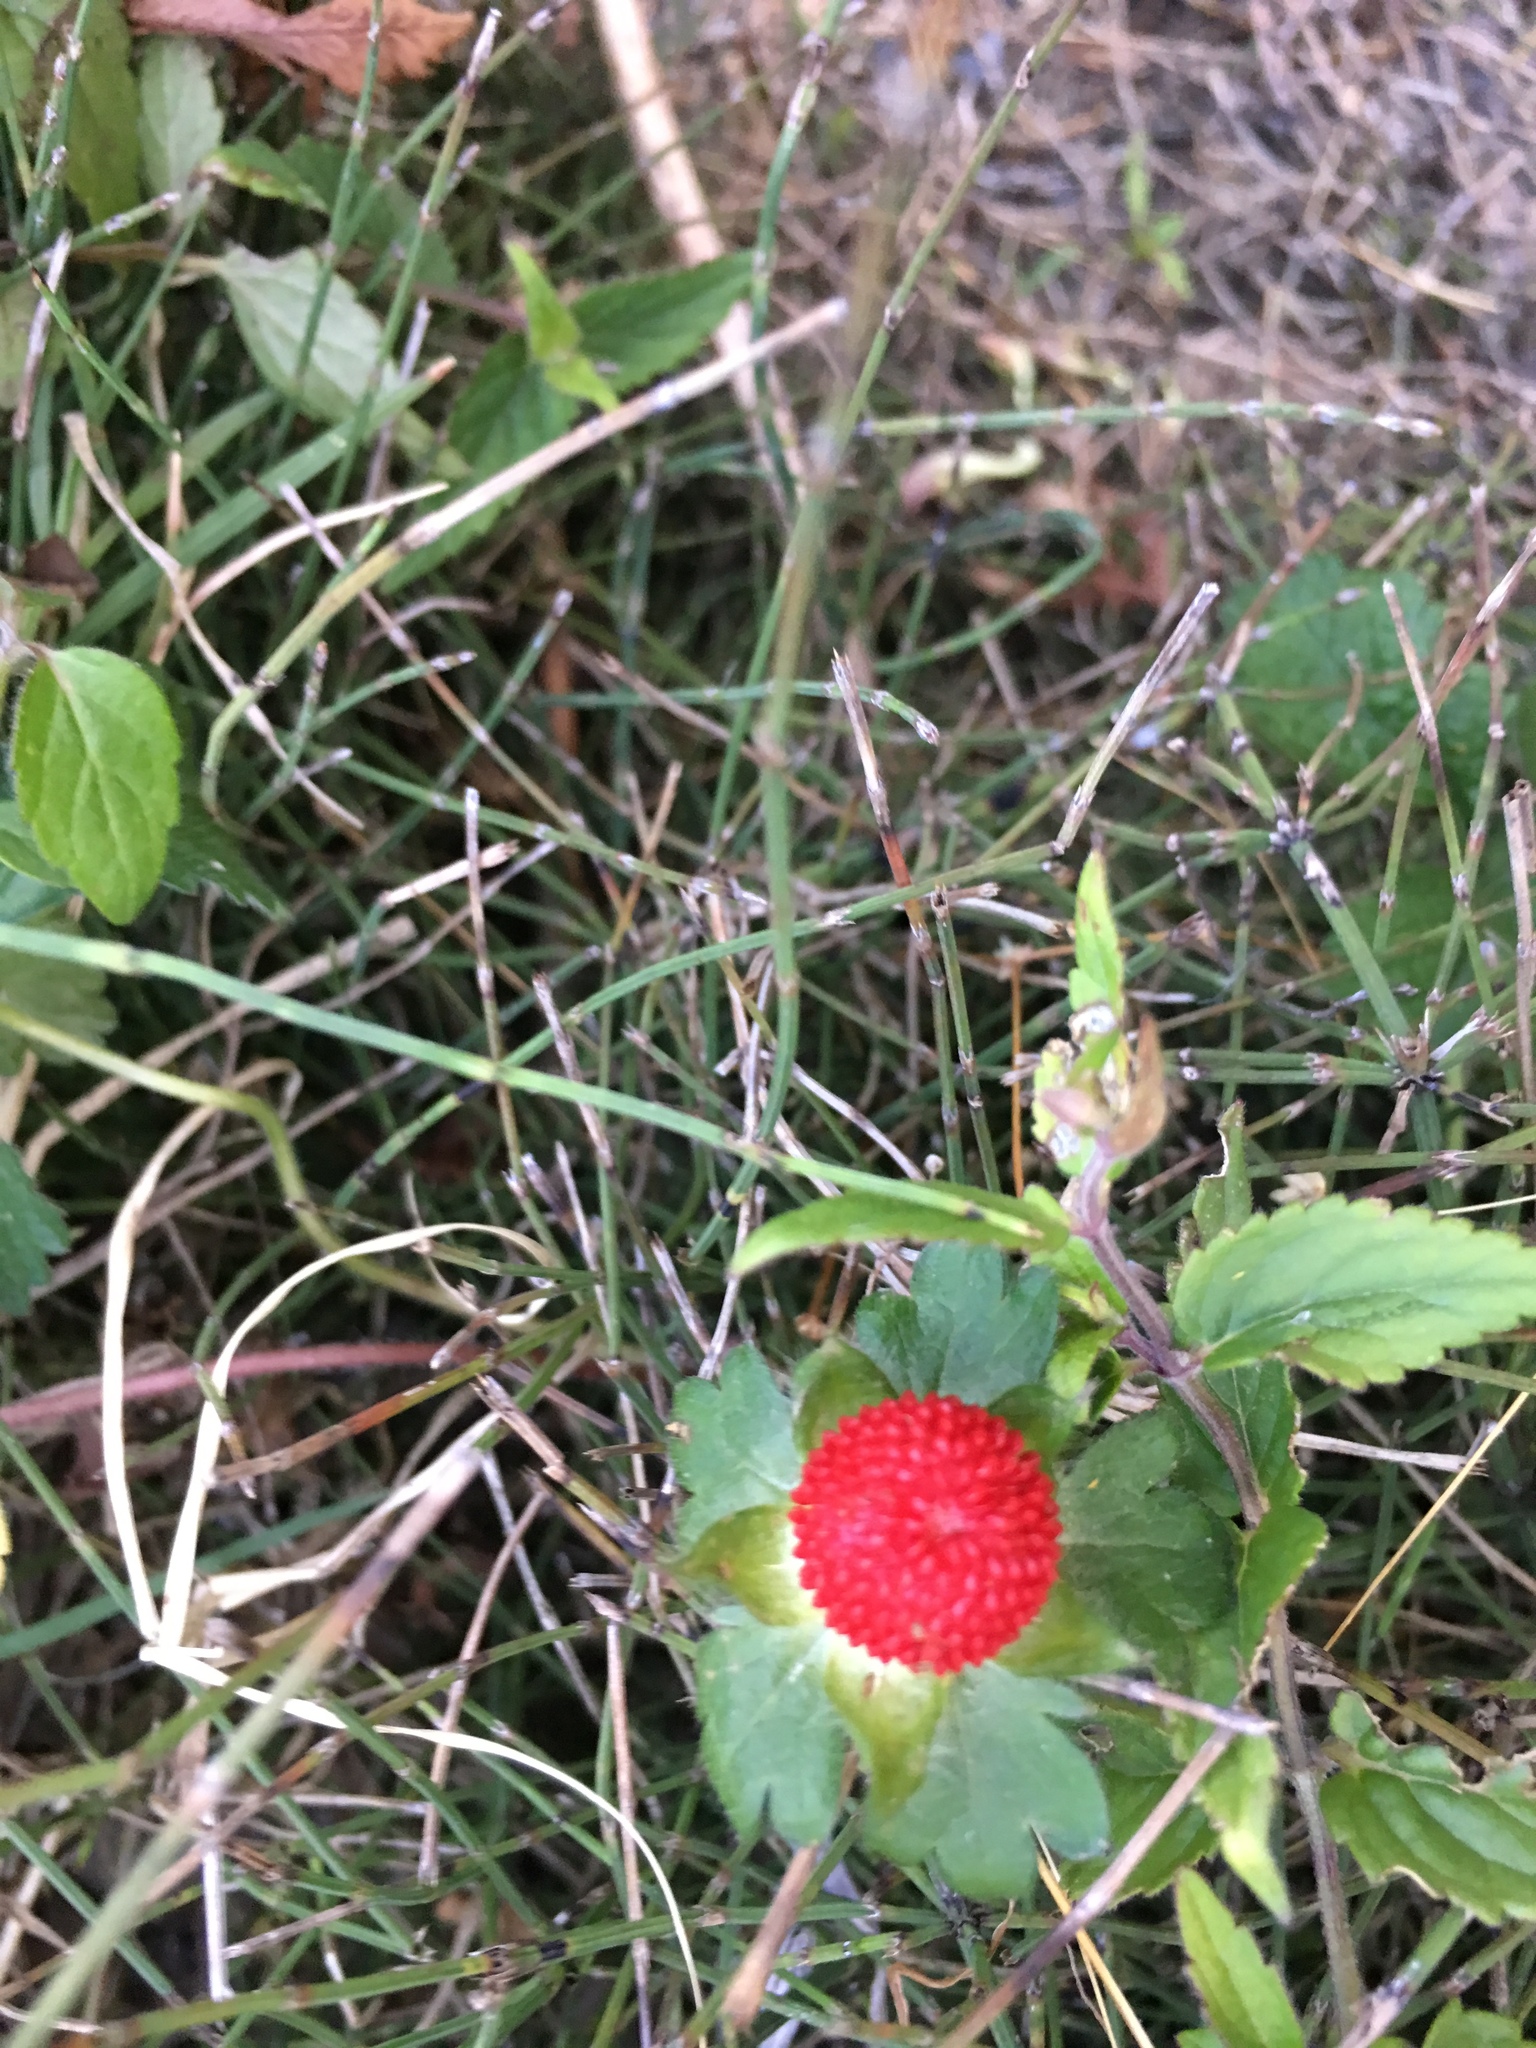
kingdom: Plantae
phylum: Tracheophyta
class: Magnoliopsida
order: Rosales
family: Rosaceae
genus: Potentilla
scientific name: Potentilla indica
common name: Yellow-flowered strawberry
